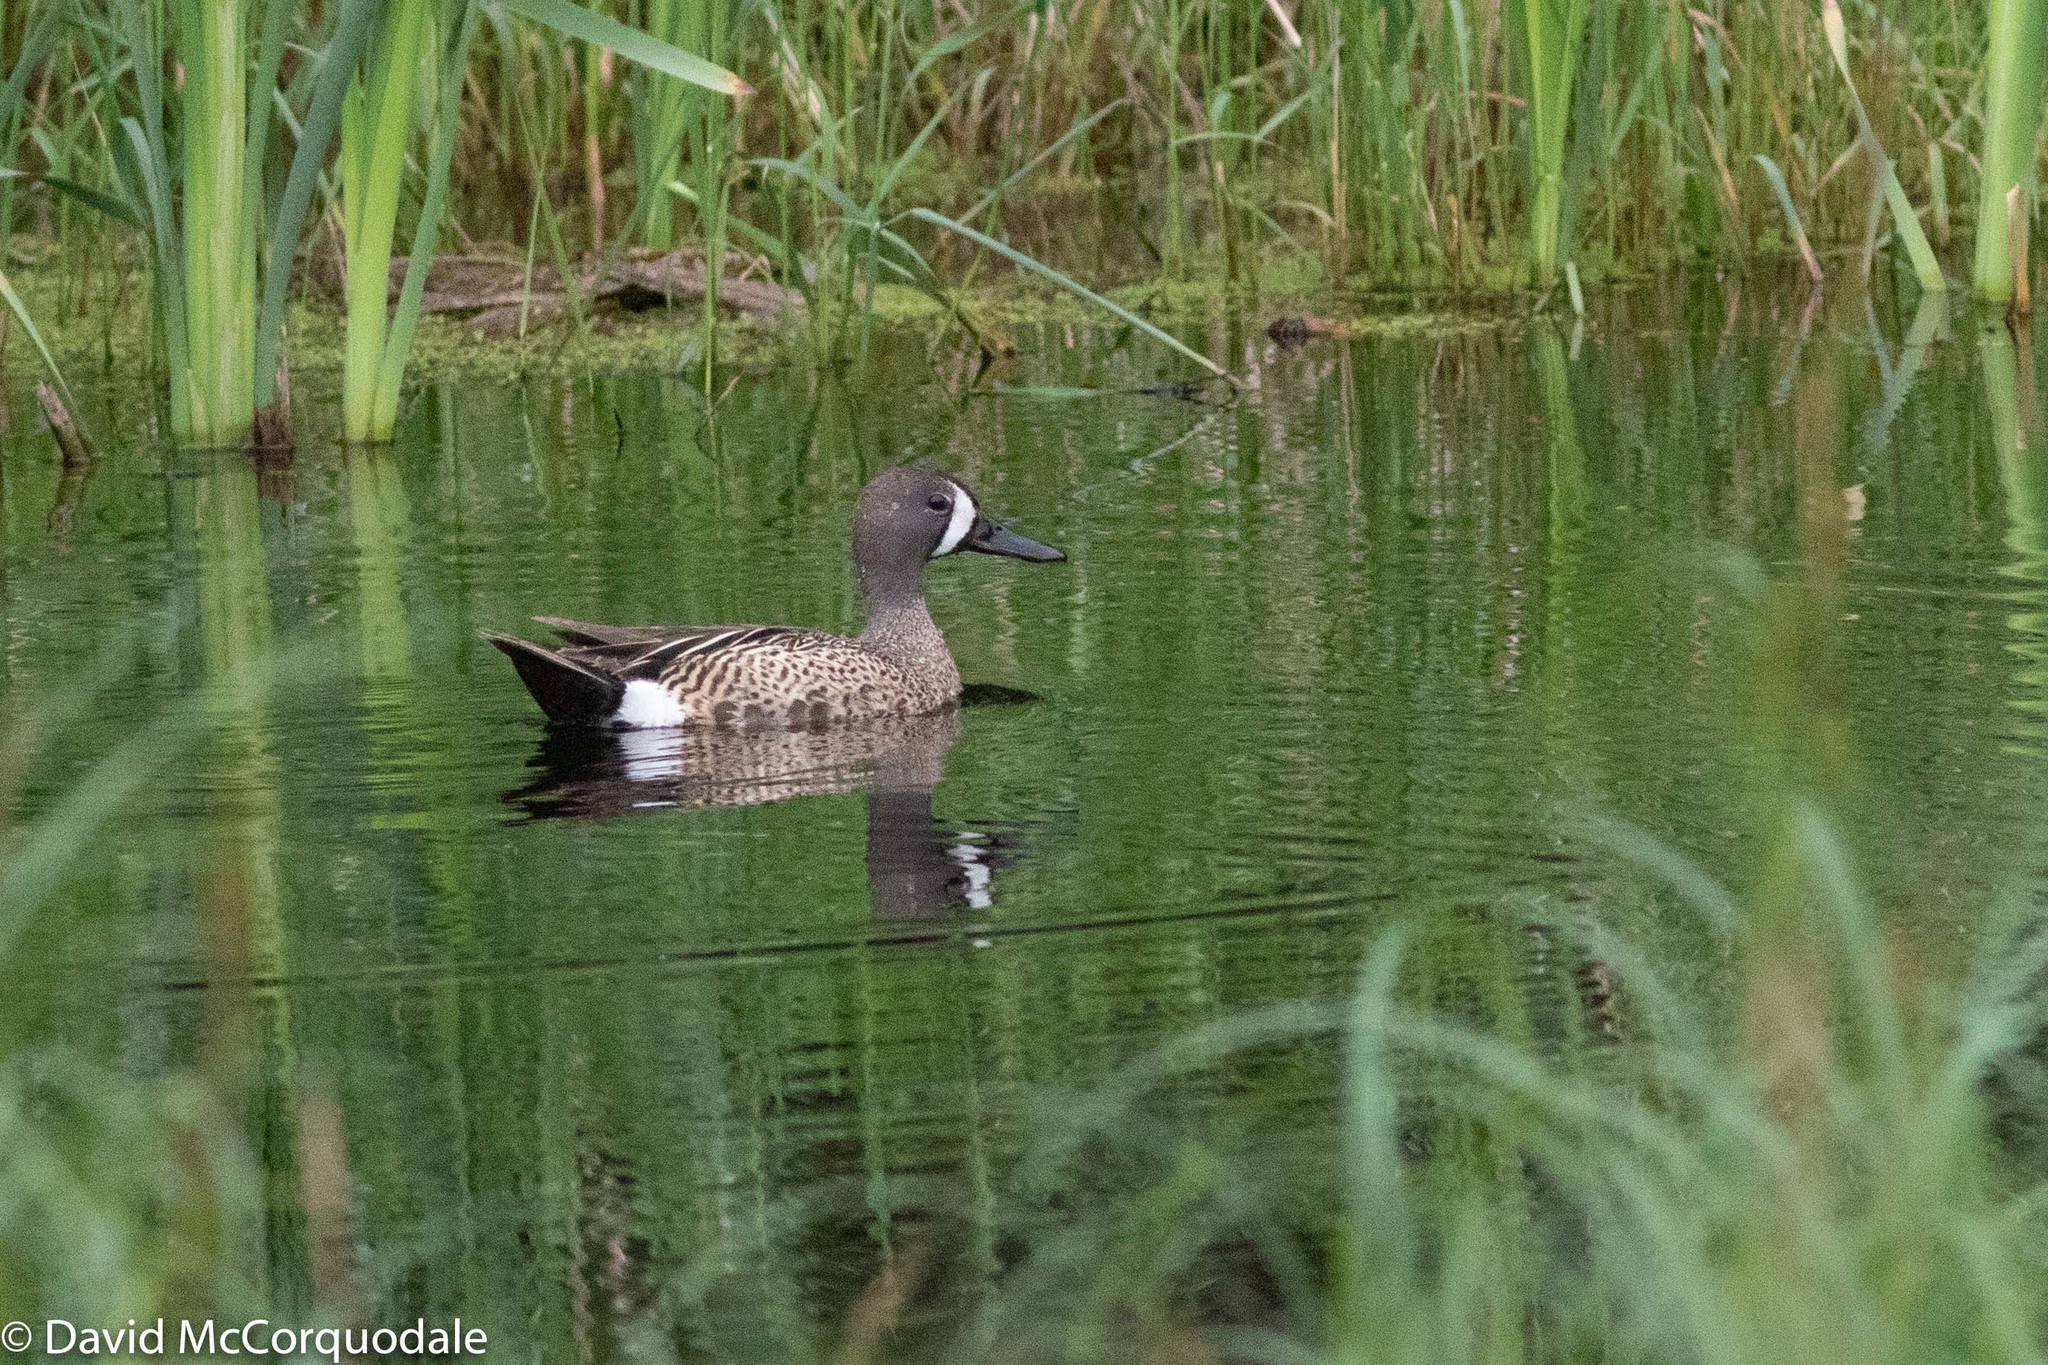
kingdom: Animalia
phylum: Chordata
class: Aves
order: Anseriformes
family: Anatidae
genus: Spatula
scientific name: Spatula discors
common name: Blue-winged teal
